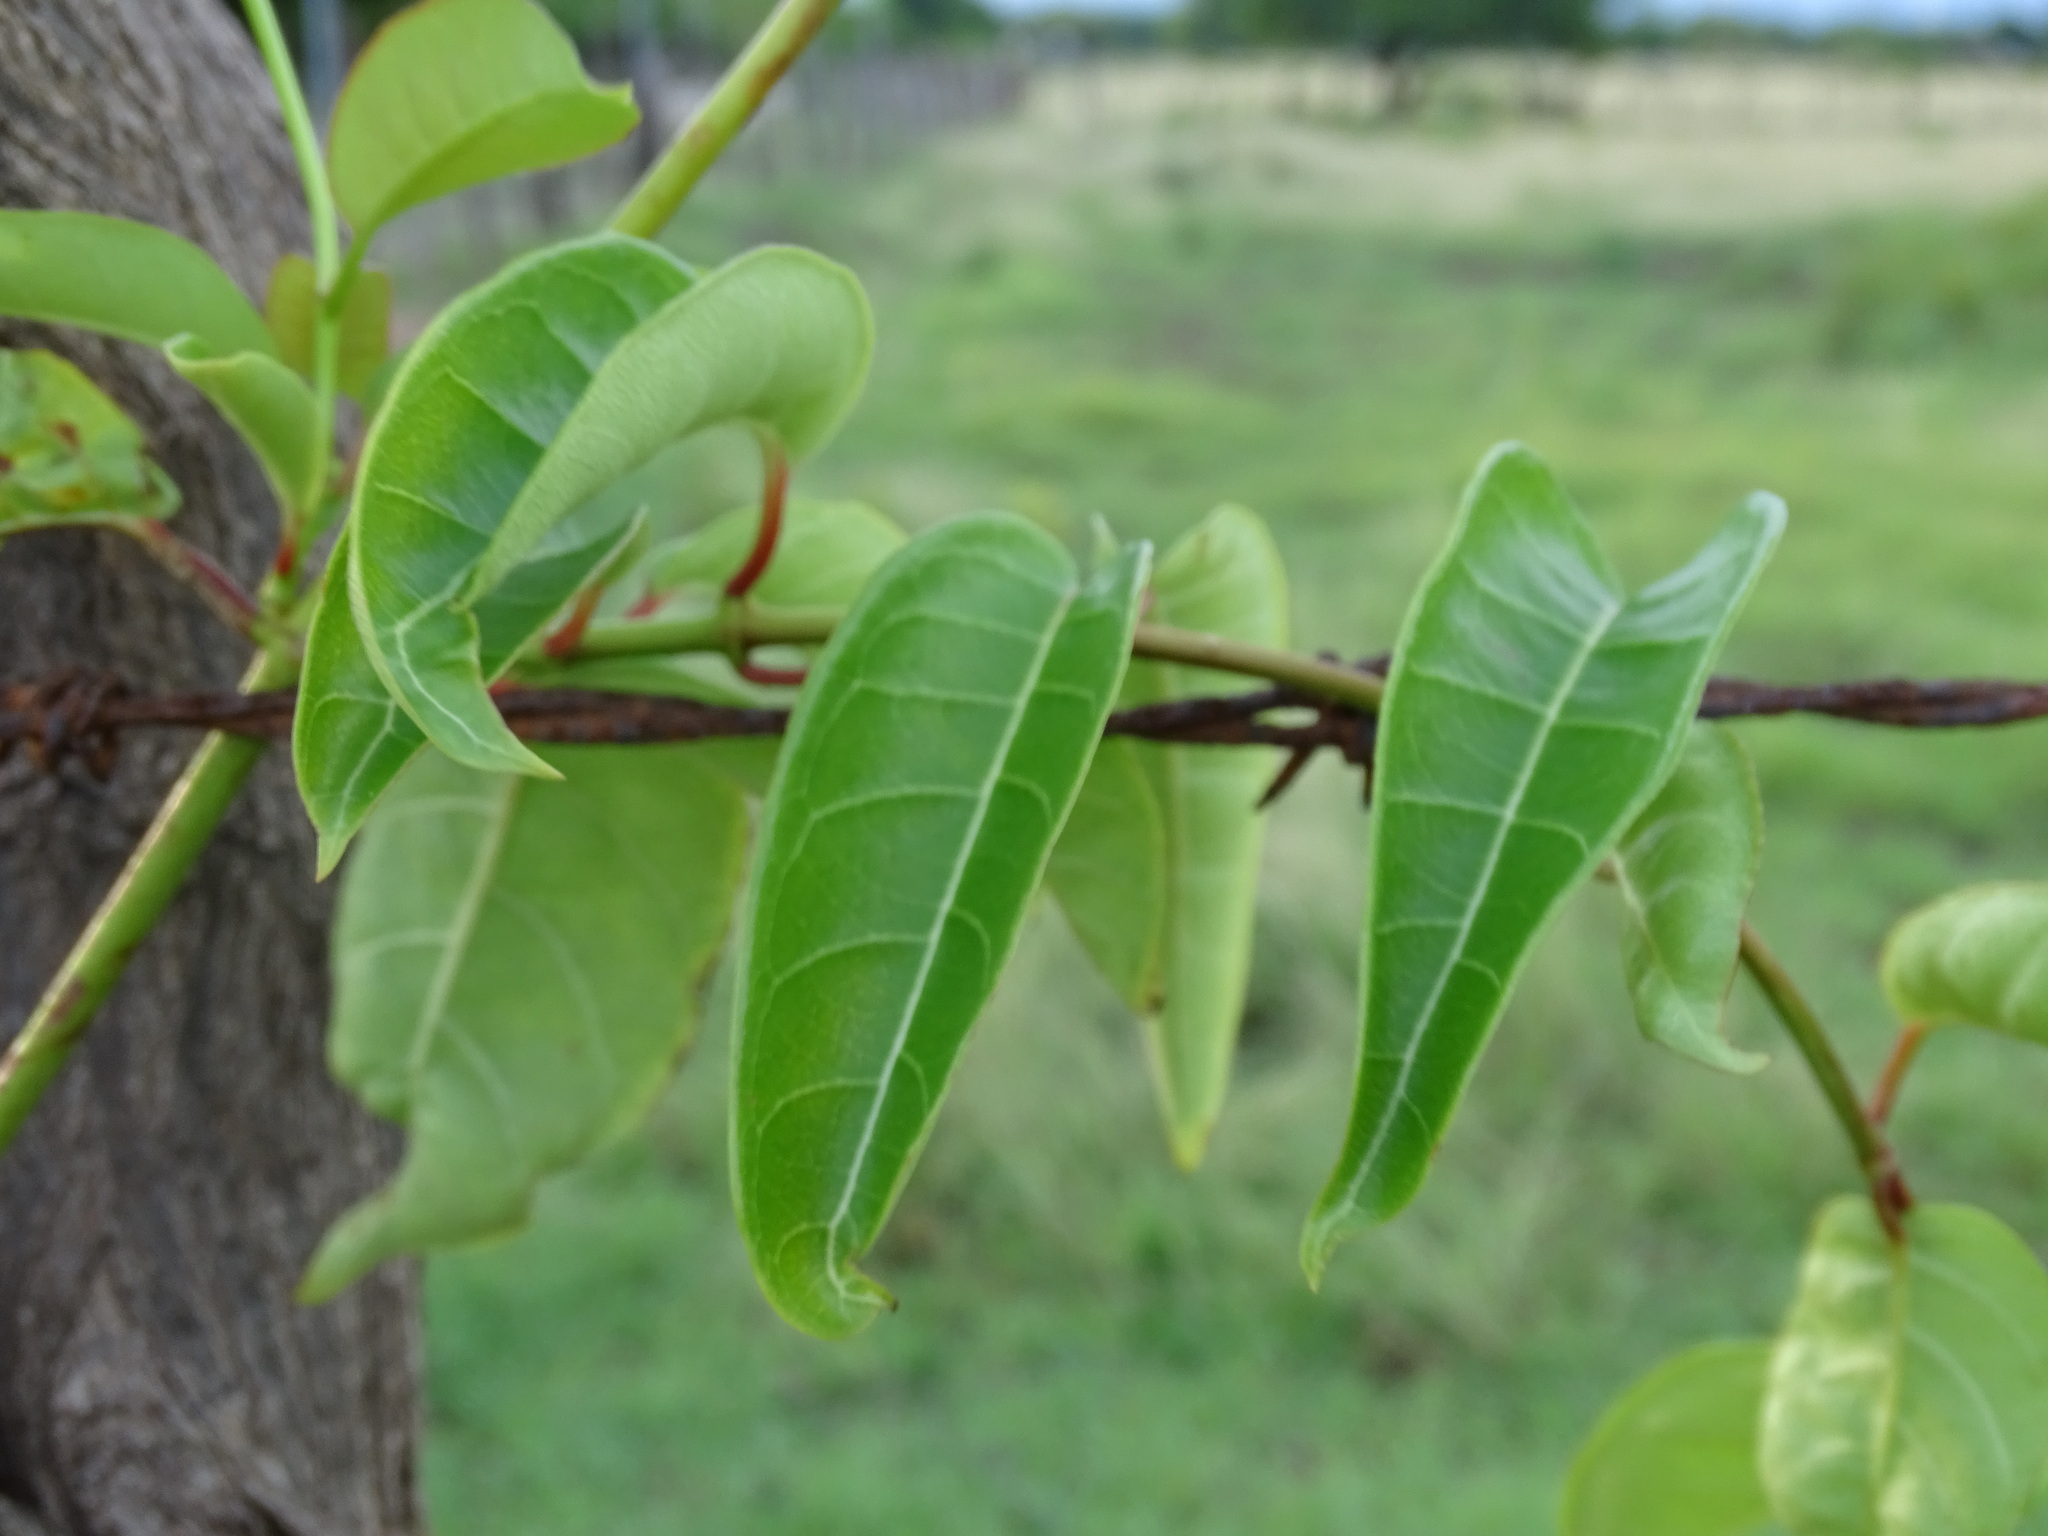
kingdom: Plantae
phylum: Tracheophyta
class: Magnoliopsida
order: Gentianales
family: Apocynaceae
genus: Pentalinon
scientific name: Pentalinon andrieuxii
